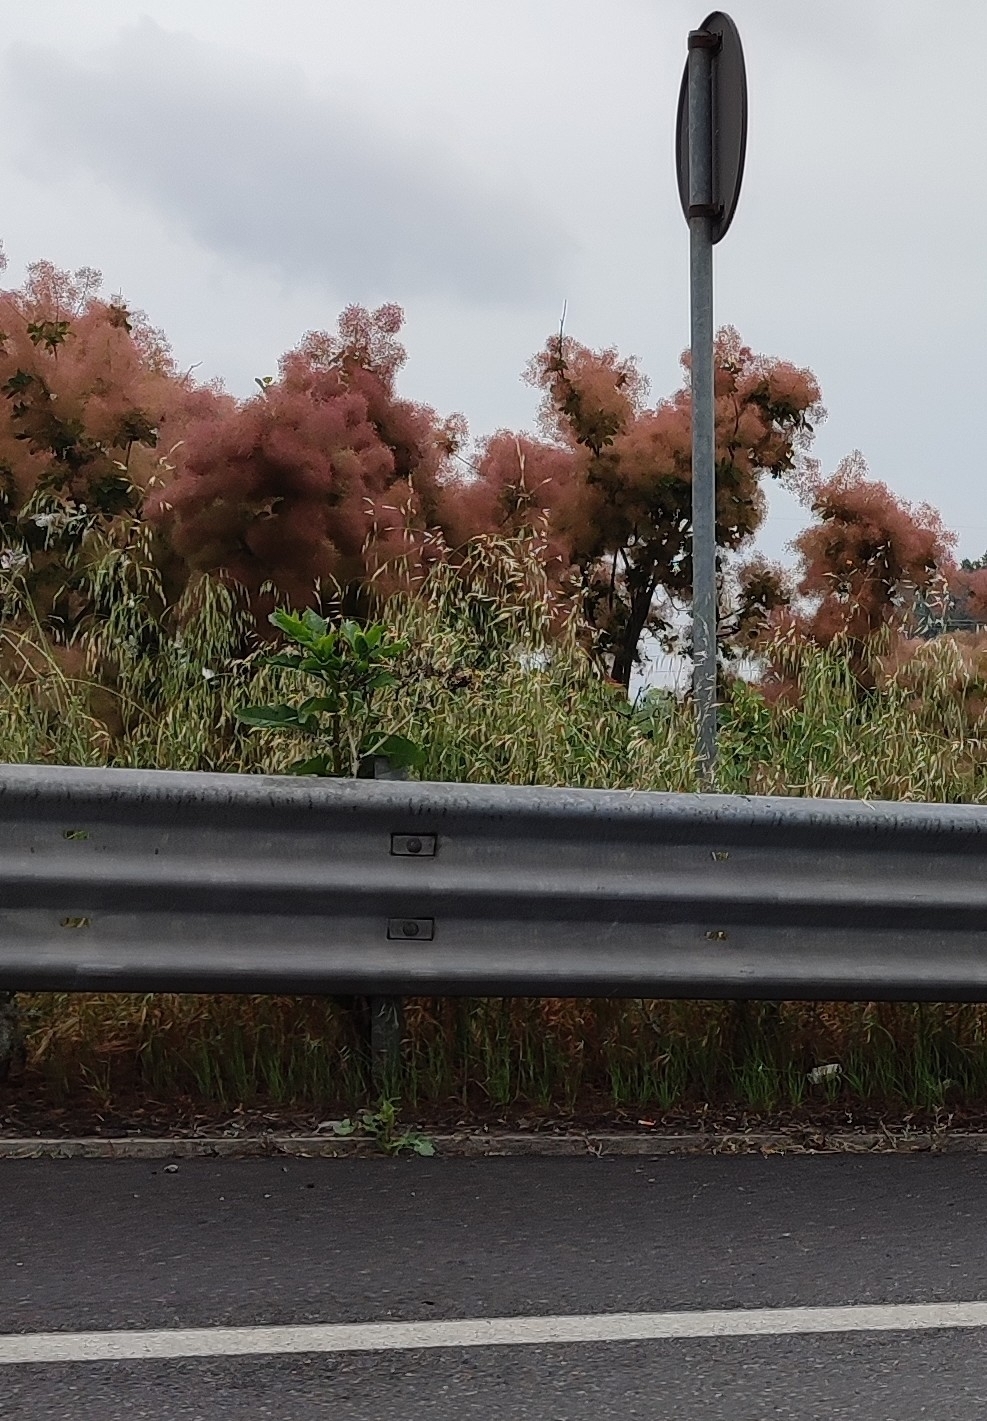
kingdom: Plantae
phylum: Tracheophyta
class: Magnoliopsida
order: Sapindales
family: Anacardiaceae
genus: Cotinus
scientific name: Cotinus coggygria
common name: Smoke-tree
